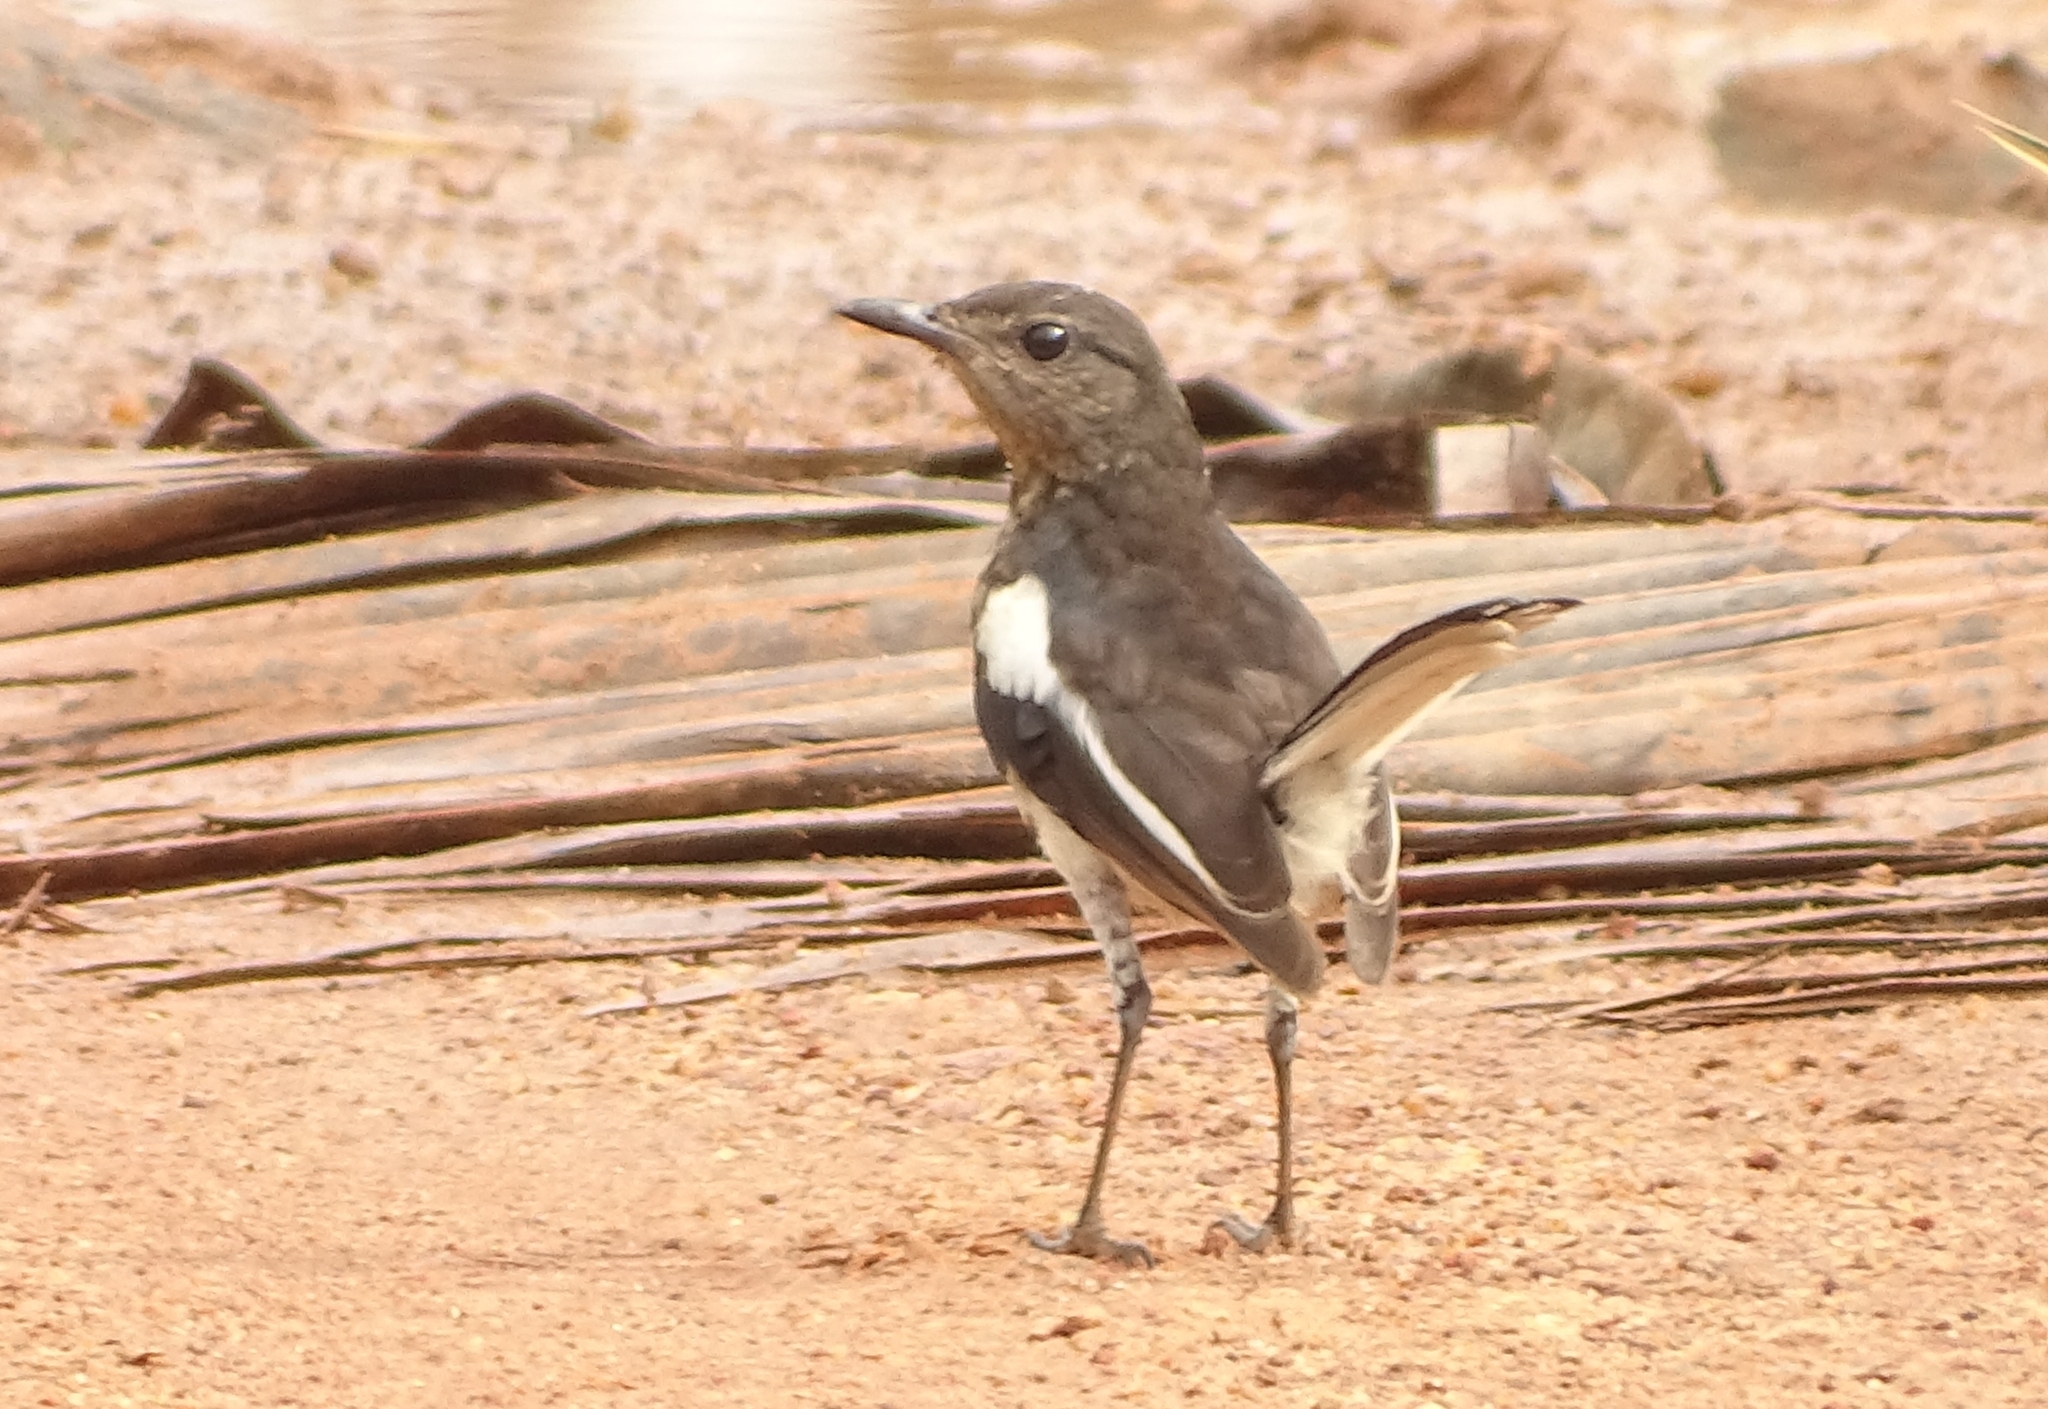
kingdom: Animalia
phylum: Chordata
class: Aves
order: Passeriformes
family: Muscicapidae
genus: Copsychus
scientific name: Copsychus saularis
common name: Oriental magpie-robin
